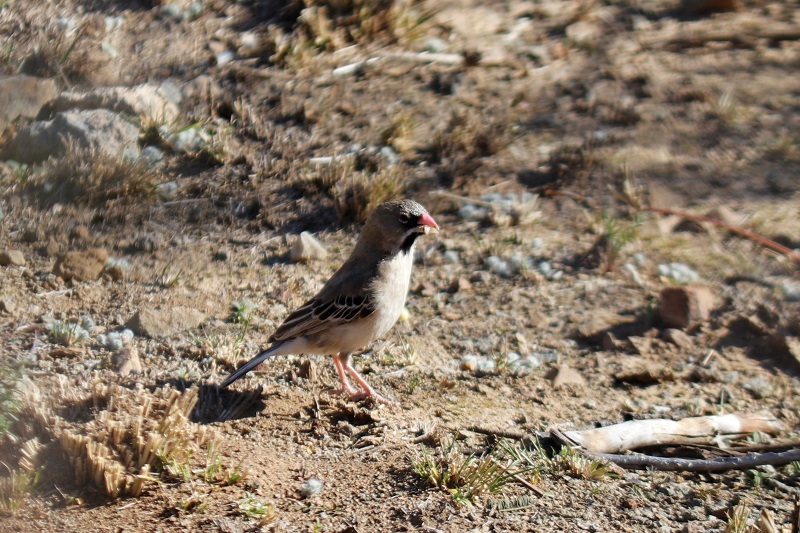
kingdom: Animalia
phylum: Chordata
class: Aves
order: Passeriformes
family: Ploceidae
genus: Sporopipes
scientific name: Sporopipes squamifrons
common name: Scaly-feathered weaver
